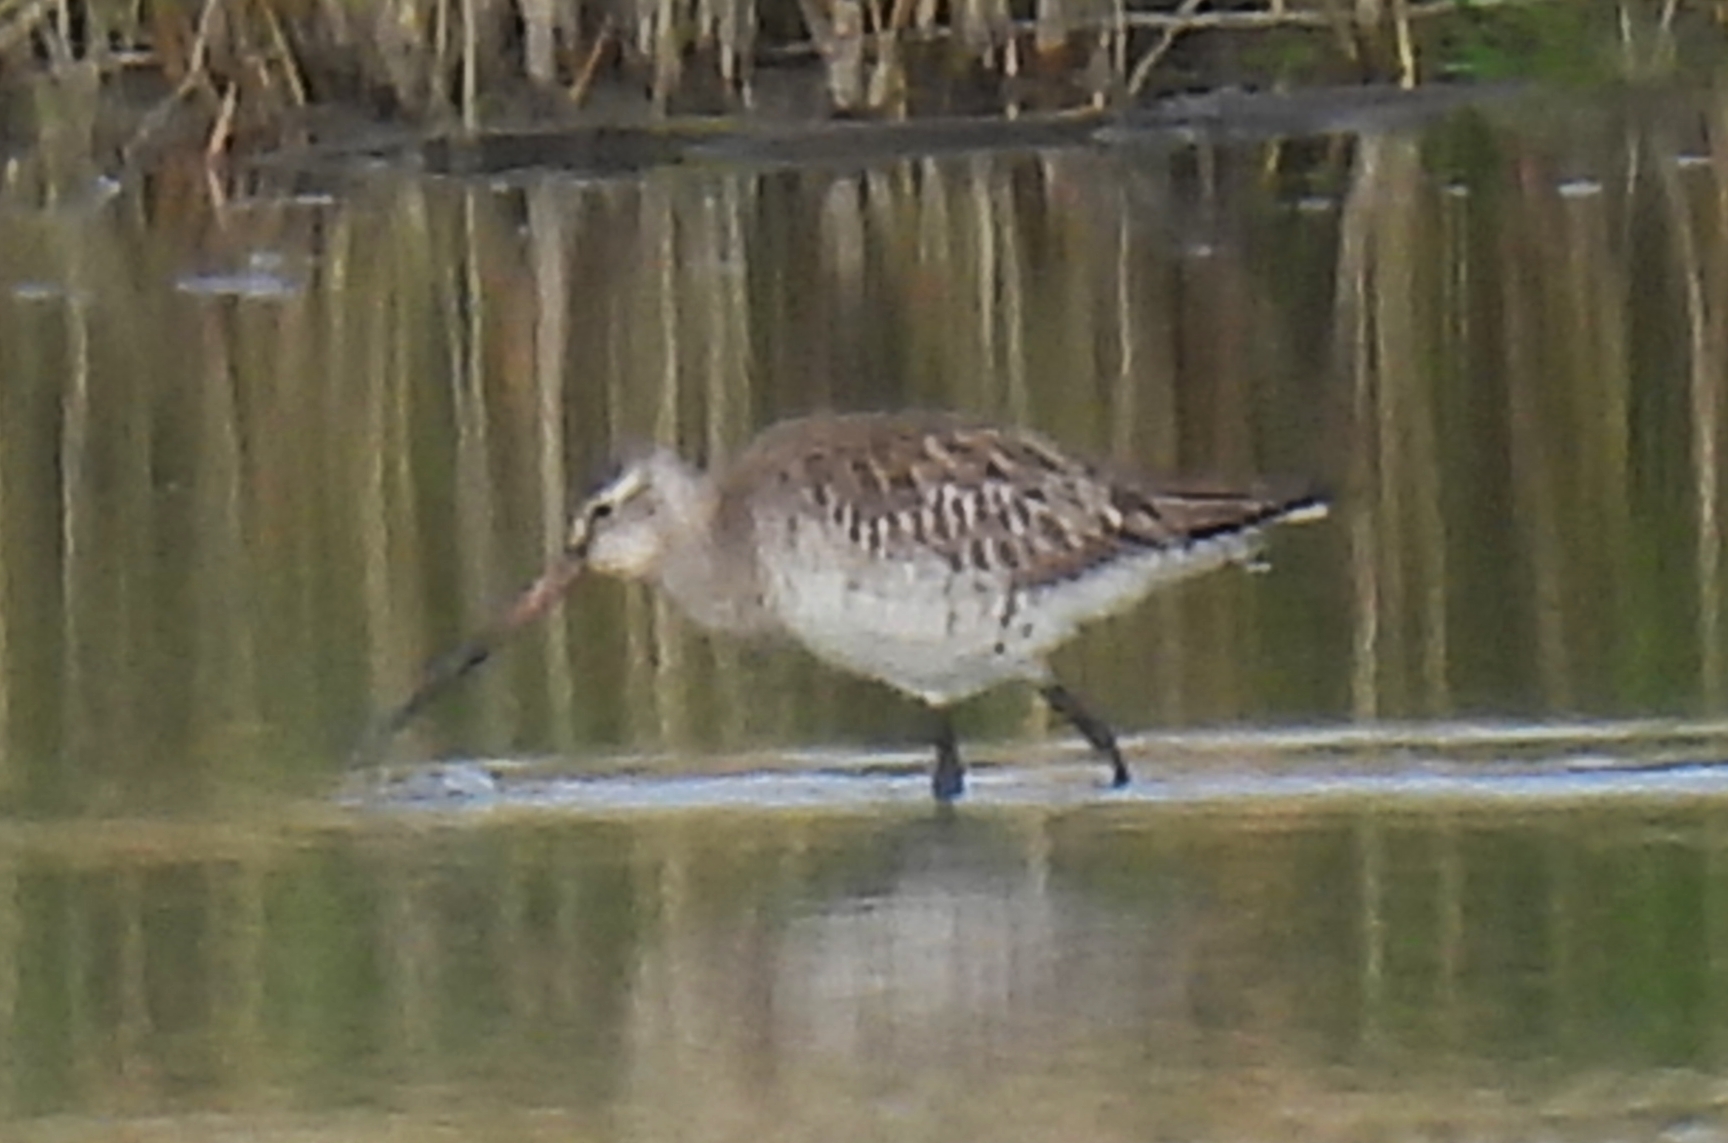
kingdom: Animalia
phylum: Chordata
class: Aves
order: Charadriiformes
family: Scolopacidae
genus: Limosa
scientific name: Limosa lapponica
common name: Bar-tailed godwit
